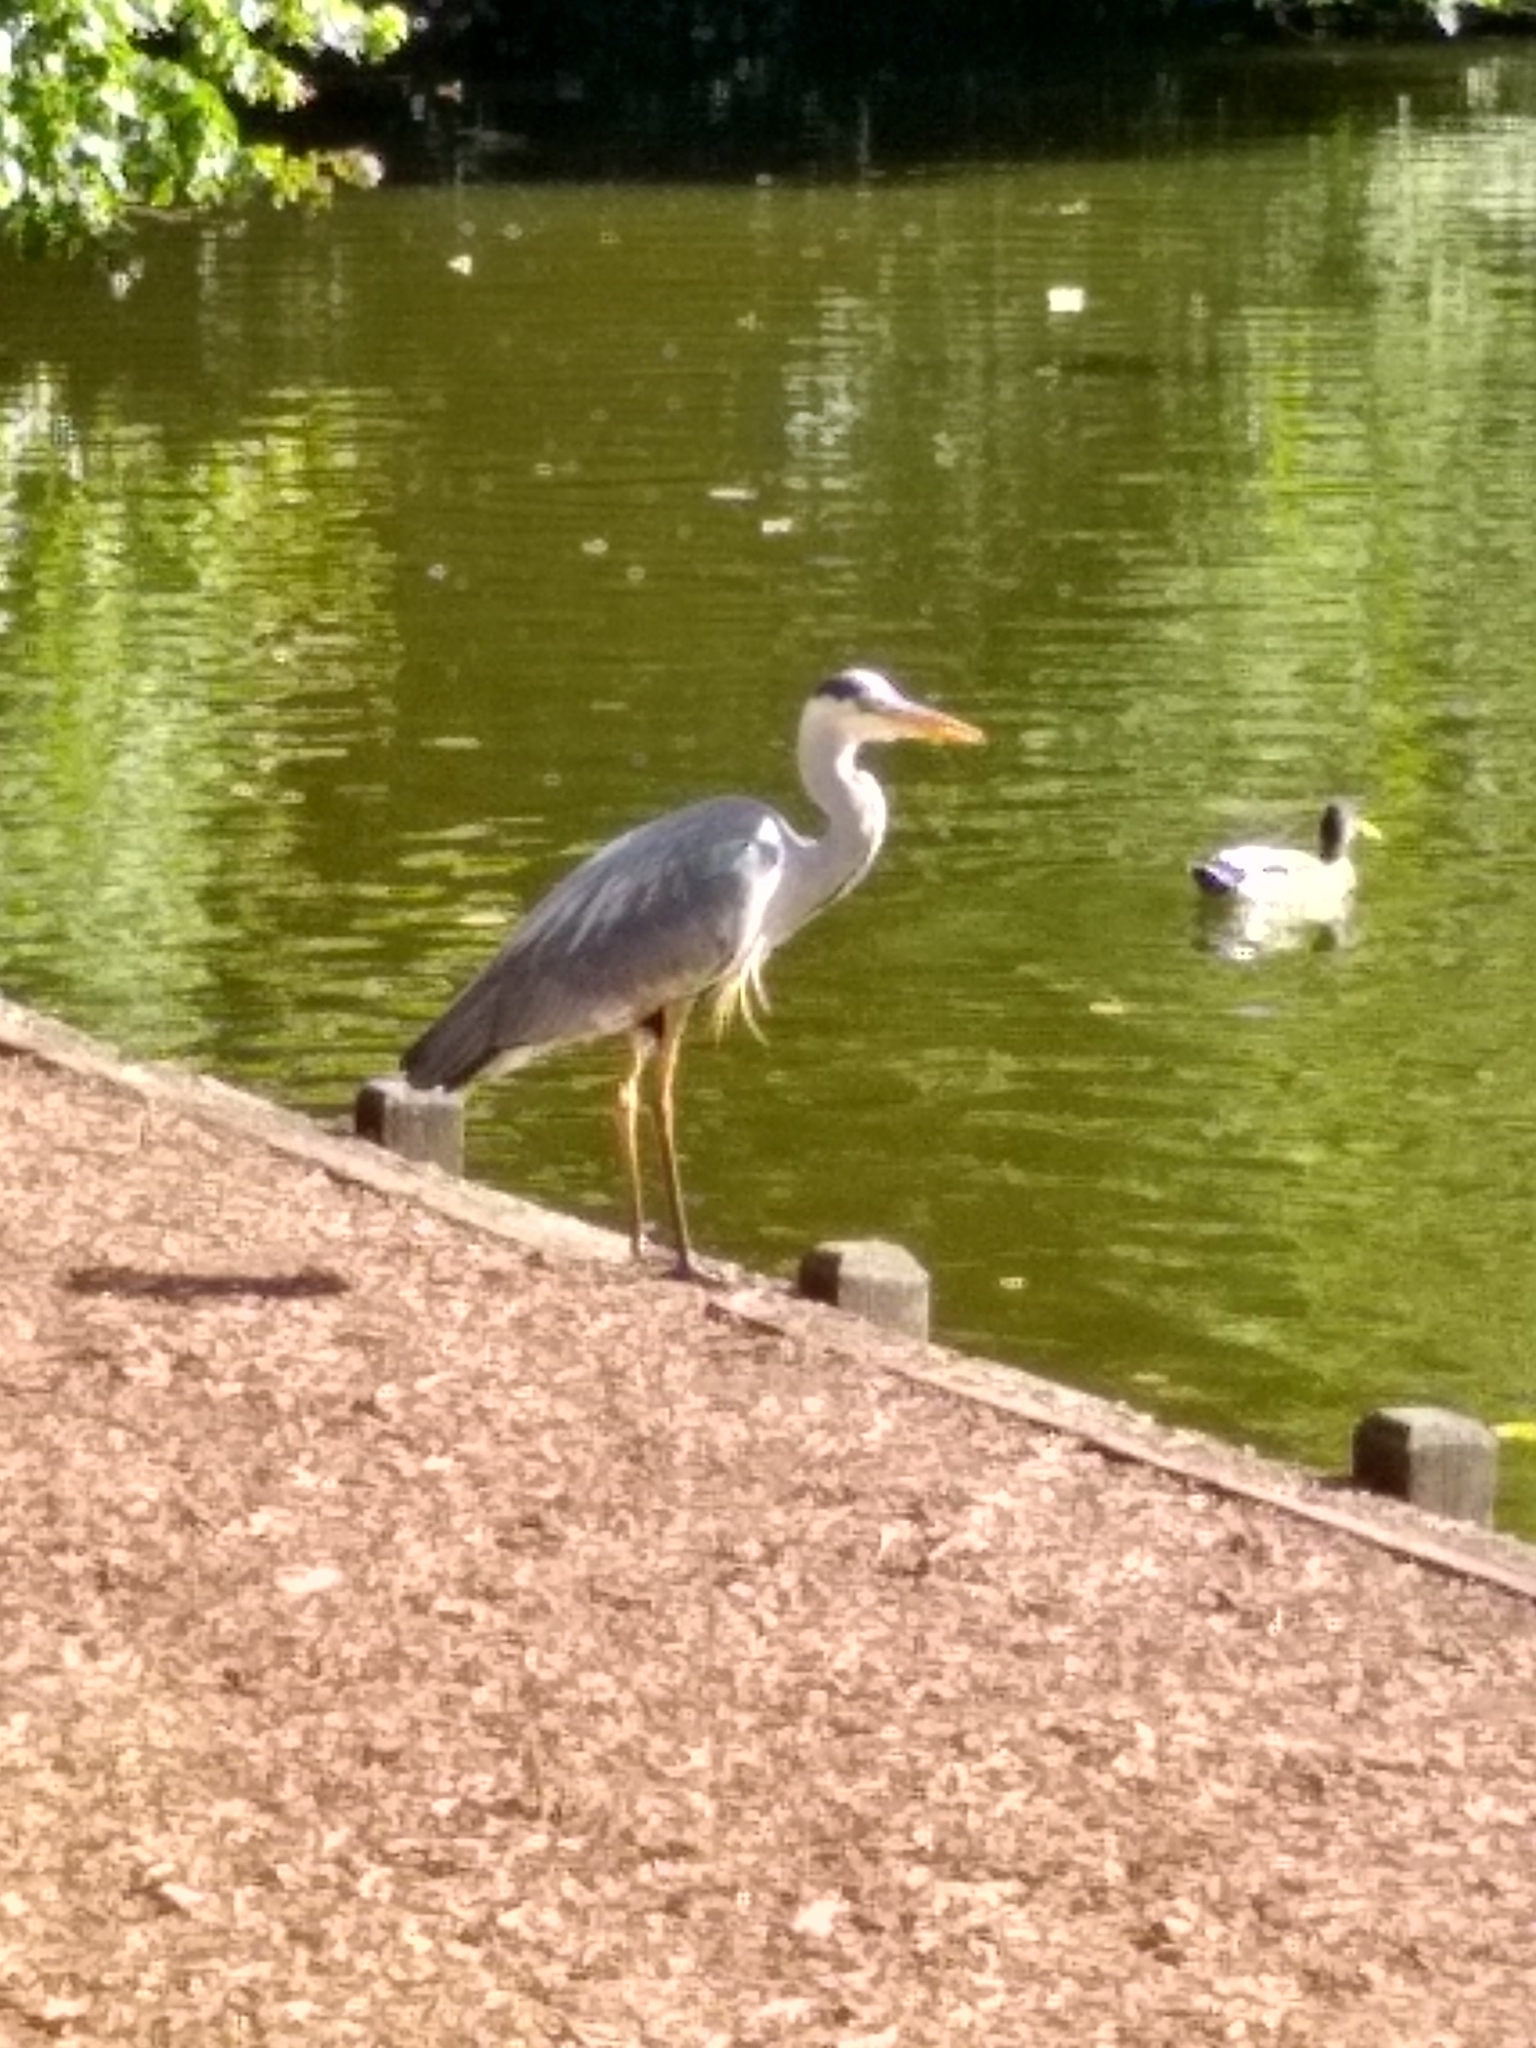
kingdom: Animalia
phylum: Chordata
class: Aves
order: Pelecaniformes
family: Ardeidae
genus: Ardea
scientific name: Ardea cinerea
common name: Grey heron
